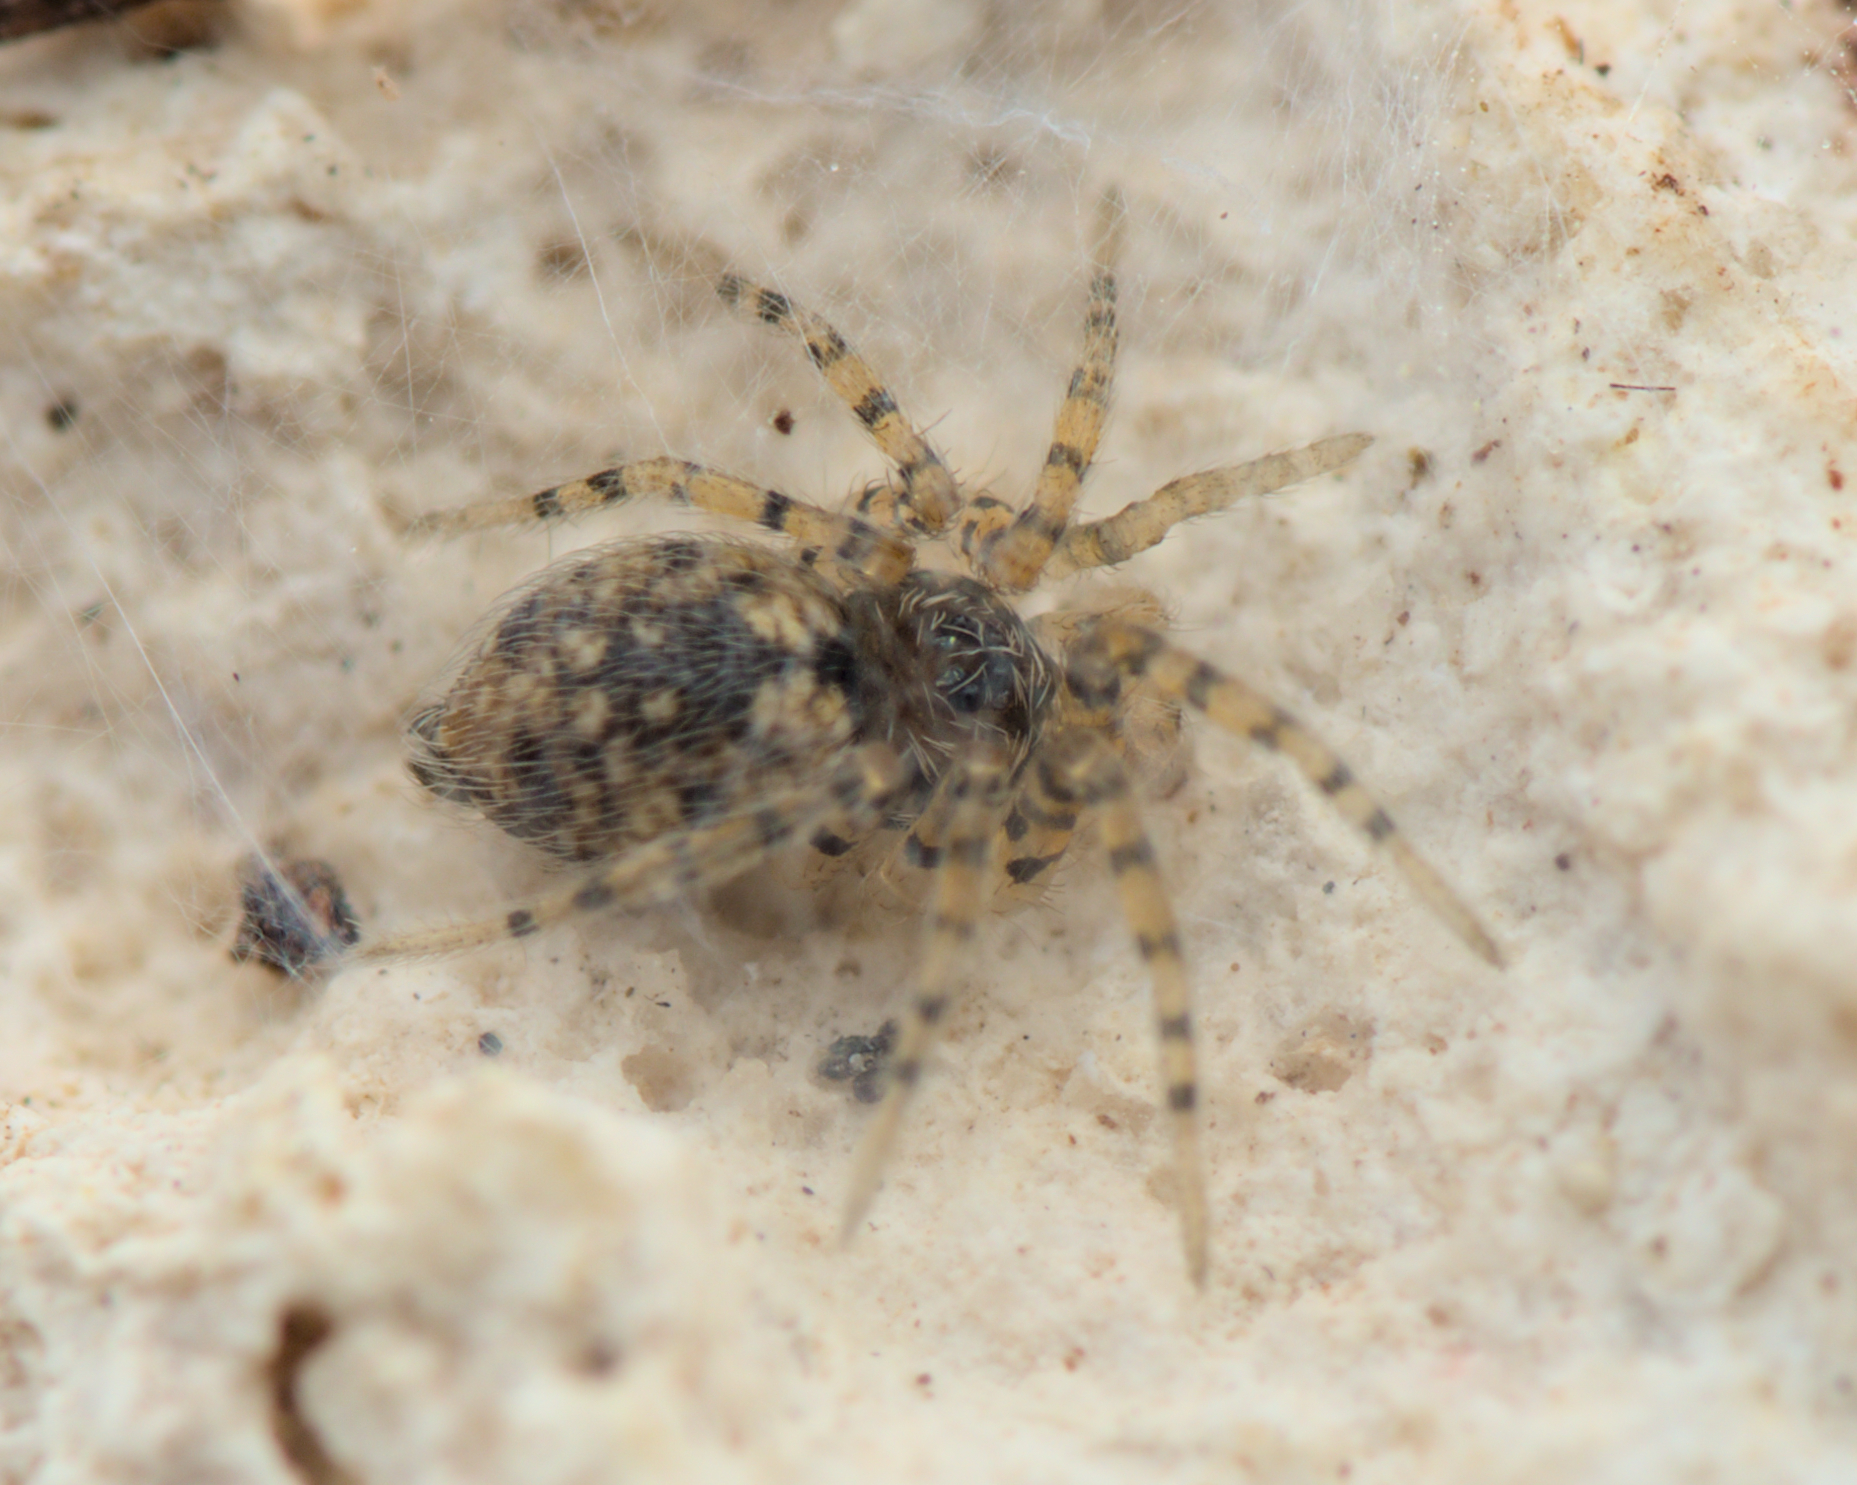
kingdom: Animalia
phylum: Arthropoda
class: Arachnida
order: Araneae
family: Oecobiidae
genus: Oecobius
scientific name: Oecobius maculatus
